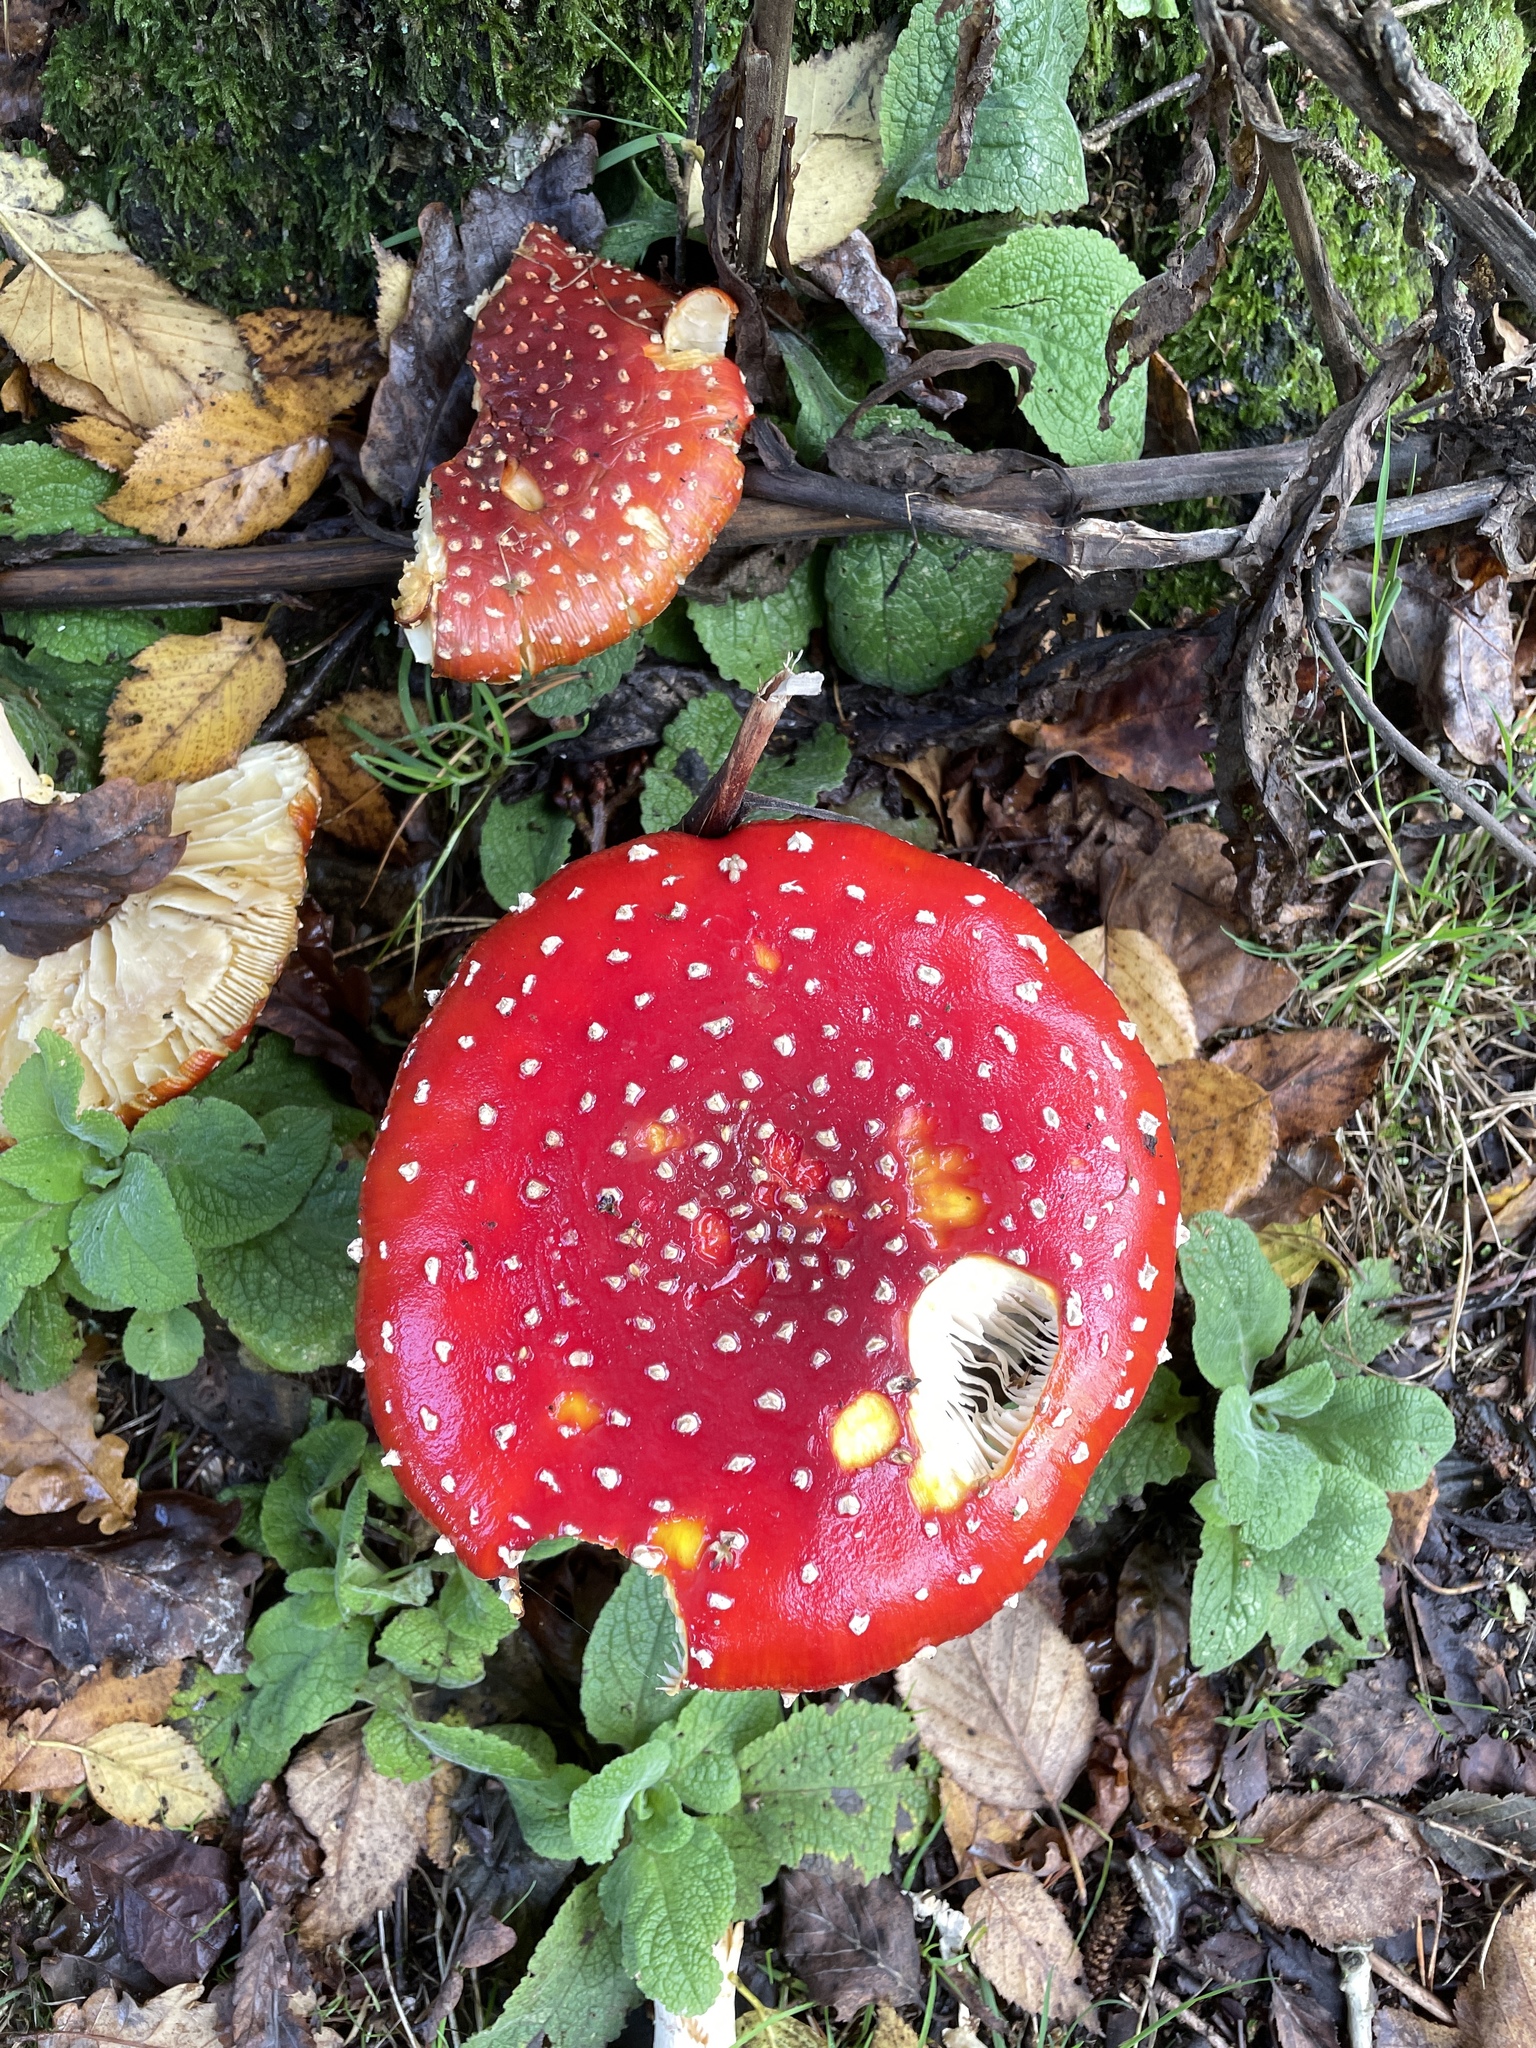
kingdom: Fungi
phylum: Basidiomycota
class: Agaricomycetes
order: Agaricales
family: Amanitaceae
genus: Amanita
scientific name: Amanita muscaria
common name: Fly agaric
